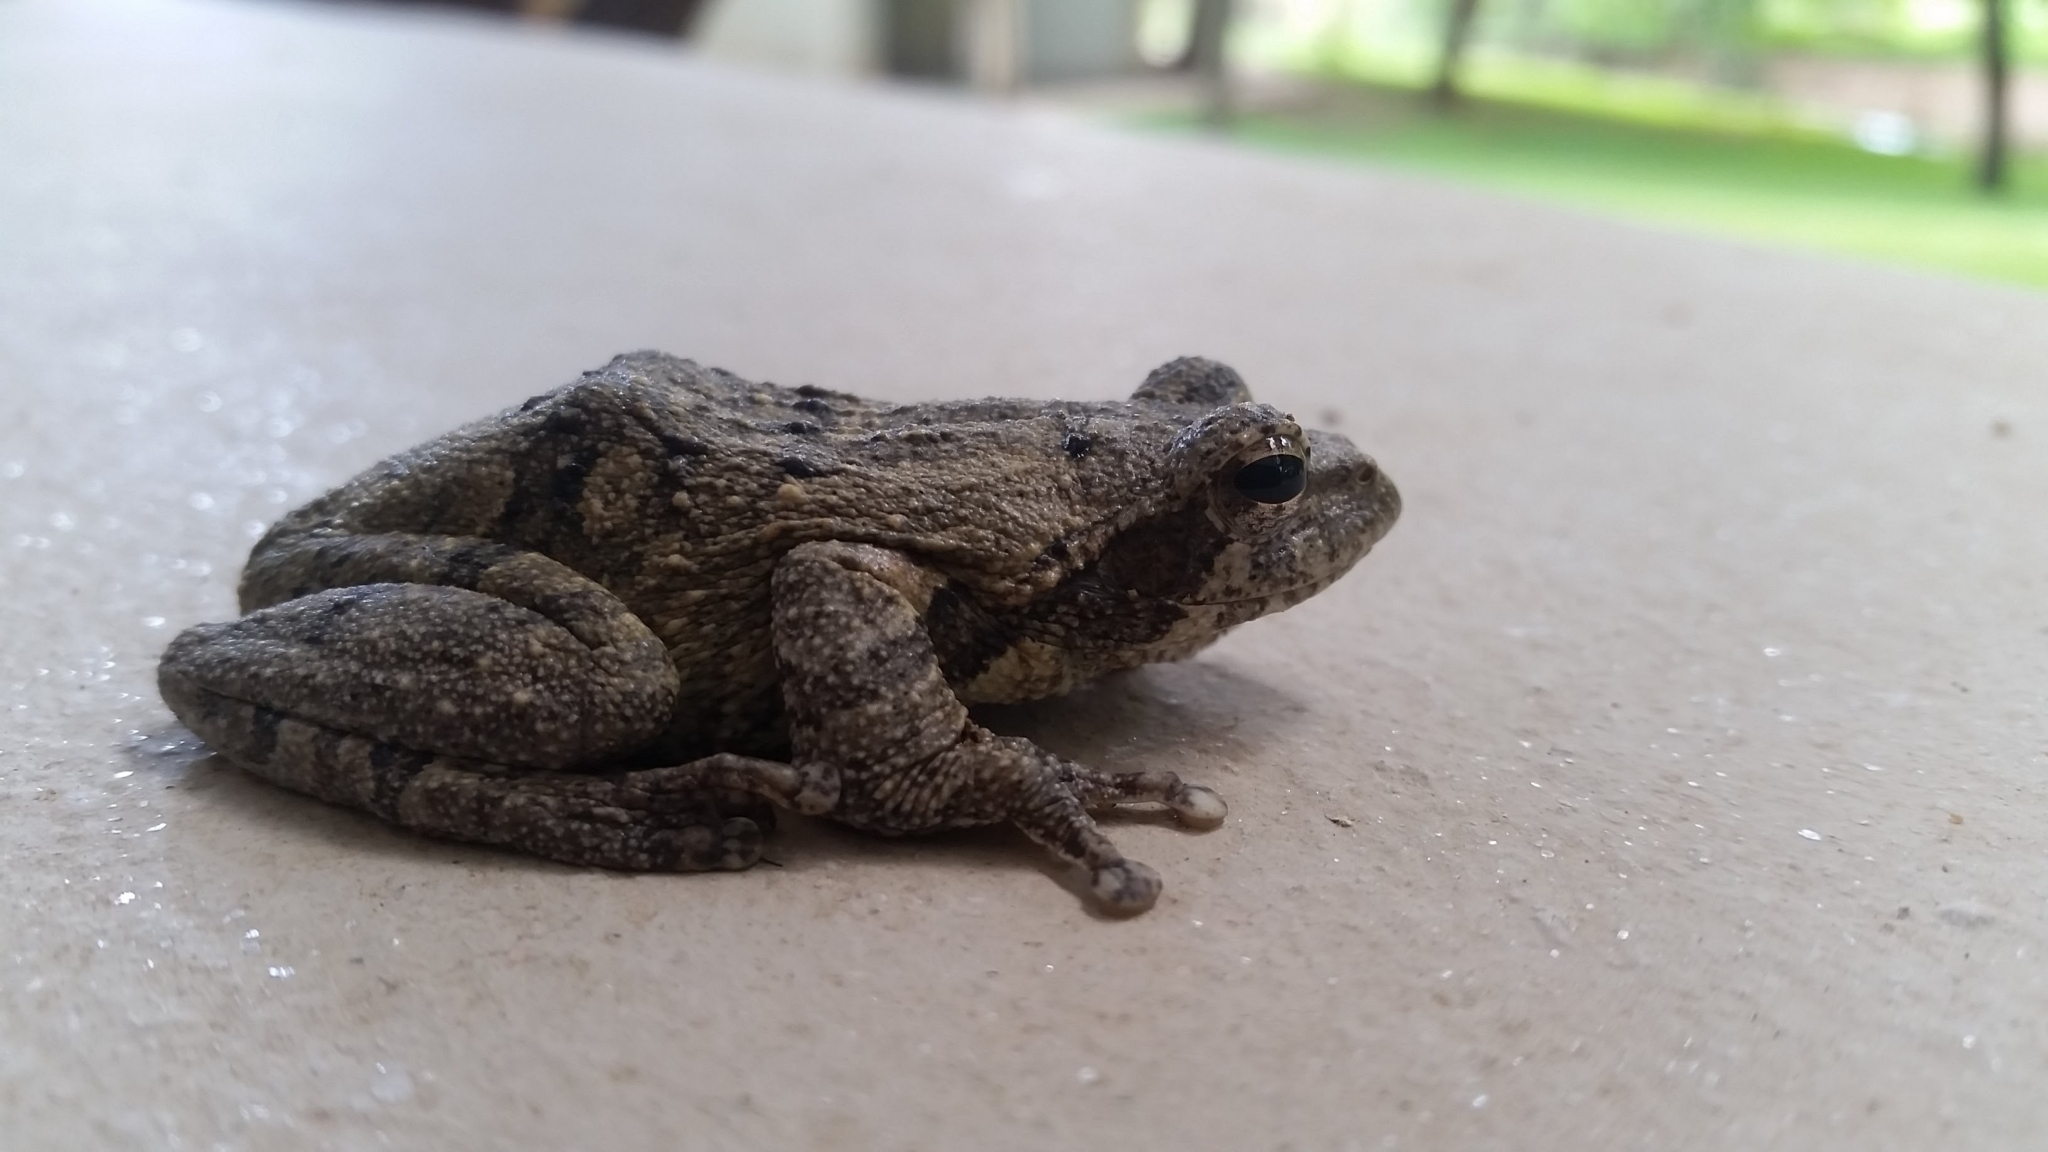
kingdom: Animalia
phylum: Chordata
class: Amphibia
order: Anura
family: Rhacophoridae
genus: Chiromantis
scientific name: Chiromantis xerampelina
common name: African gray treefrog
